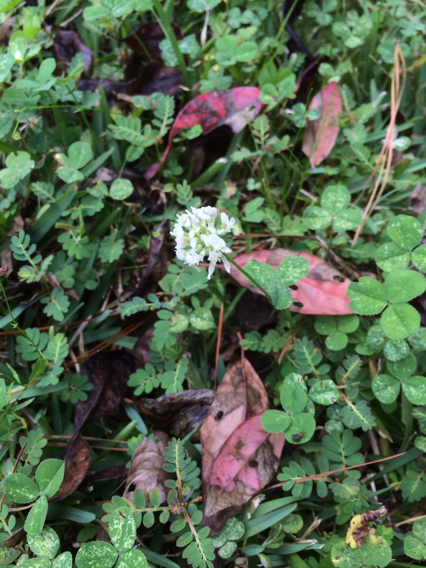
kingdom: Plantae
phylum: Tracheophyta
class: Magnoliopsida
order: Fabales
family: Fabaceae
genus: Trifolium
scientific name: Trifolium repens
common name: White clover
